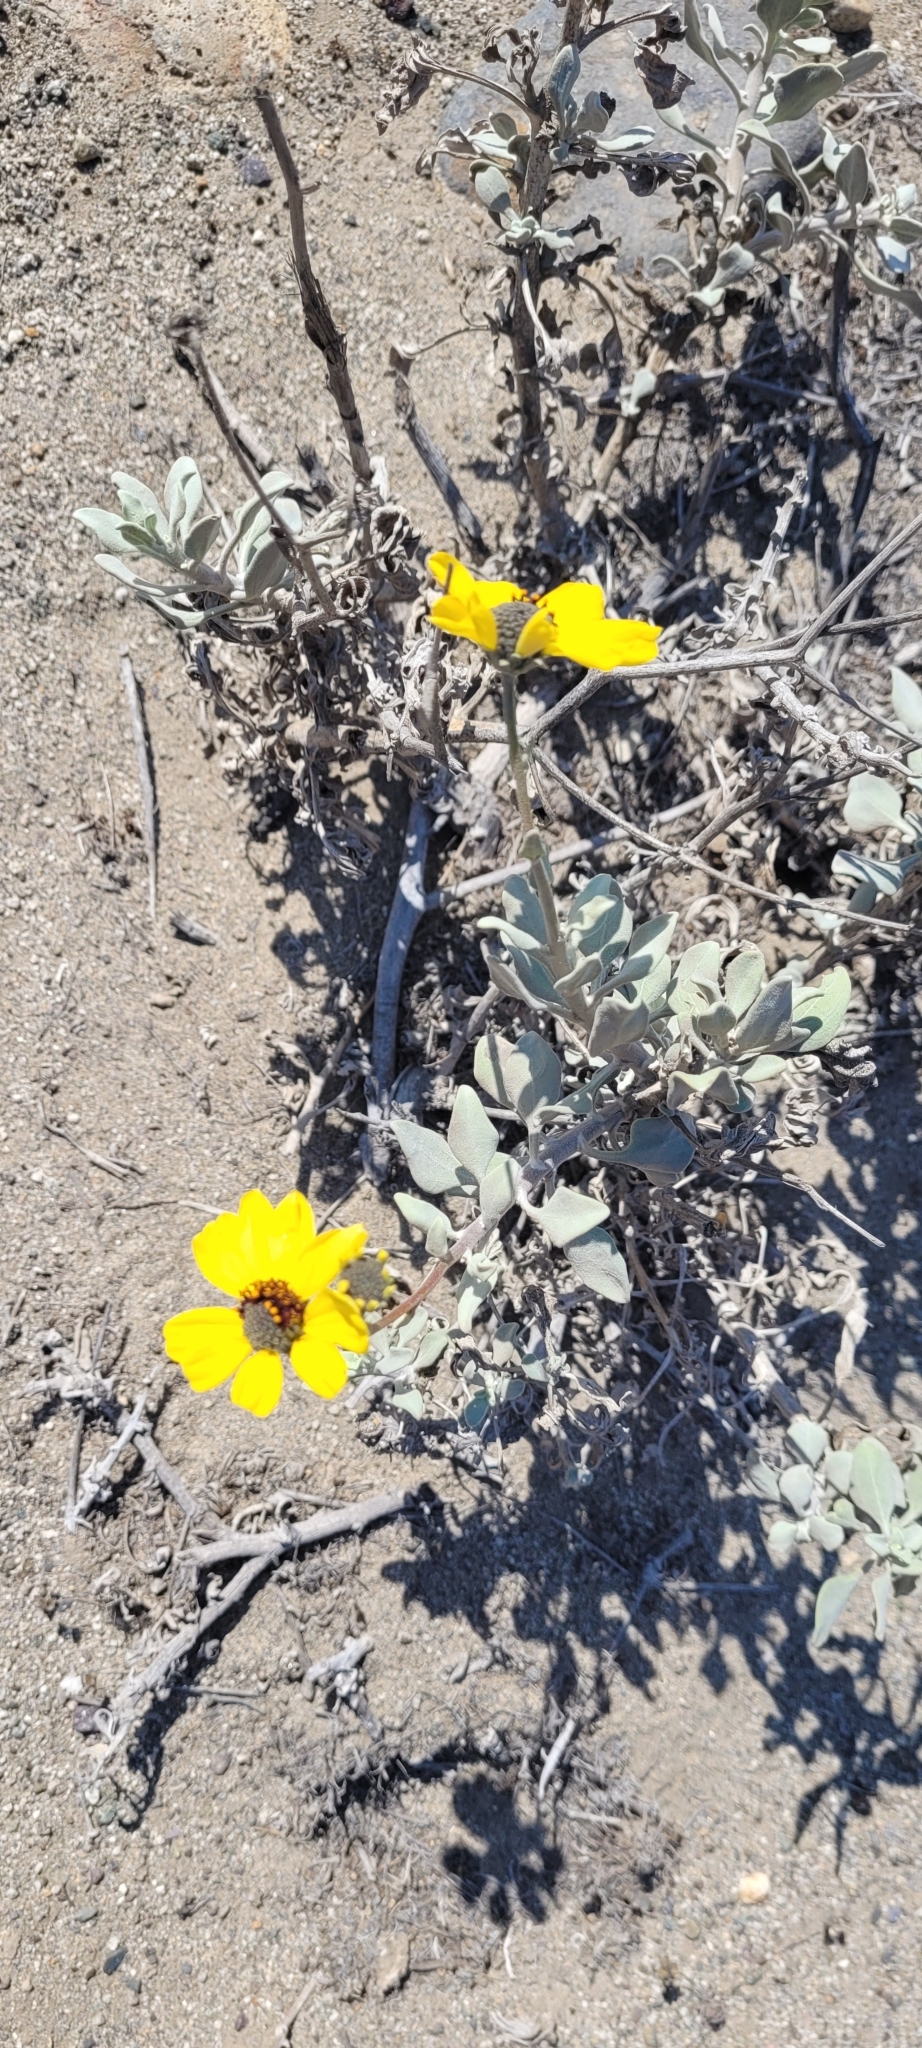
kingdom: Plantae
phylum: Tracheophyta
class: Magnoliopsida
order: Asterales
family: Asteraceae
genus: Encelia
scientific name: Encelia canescens
